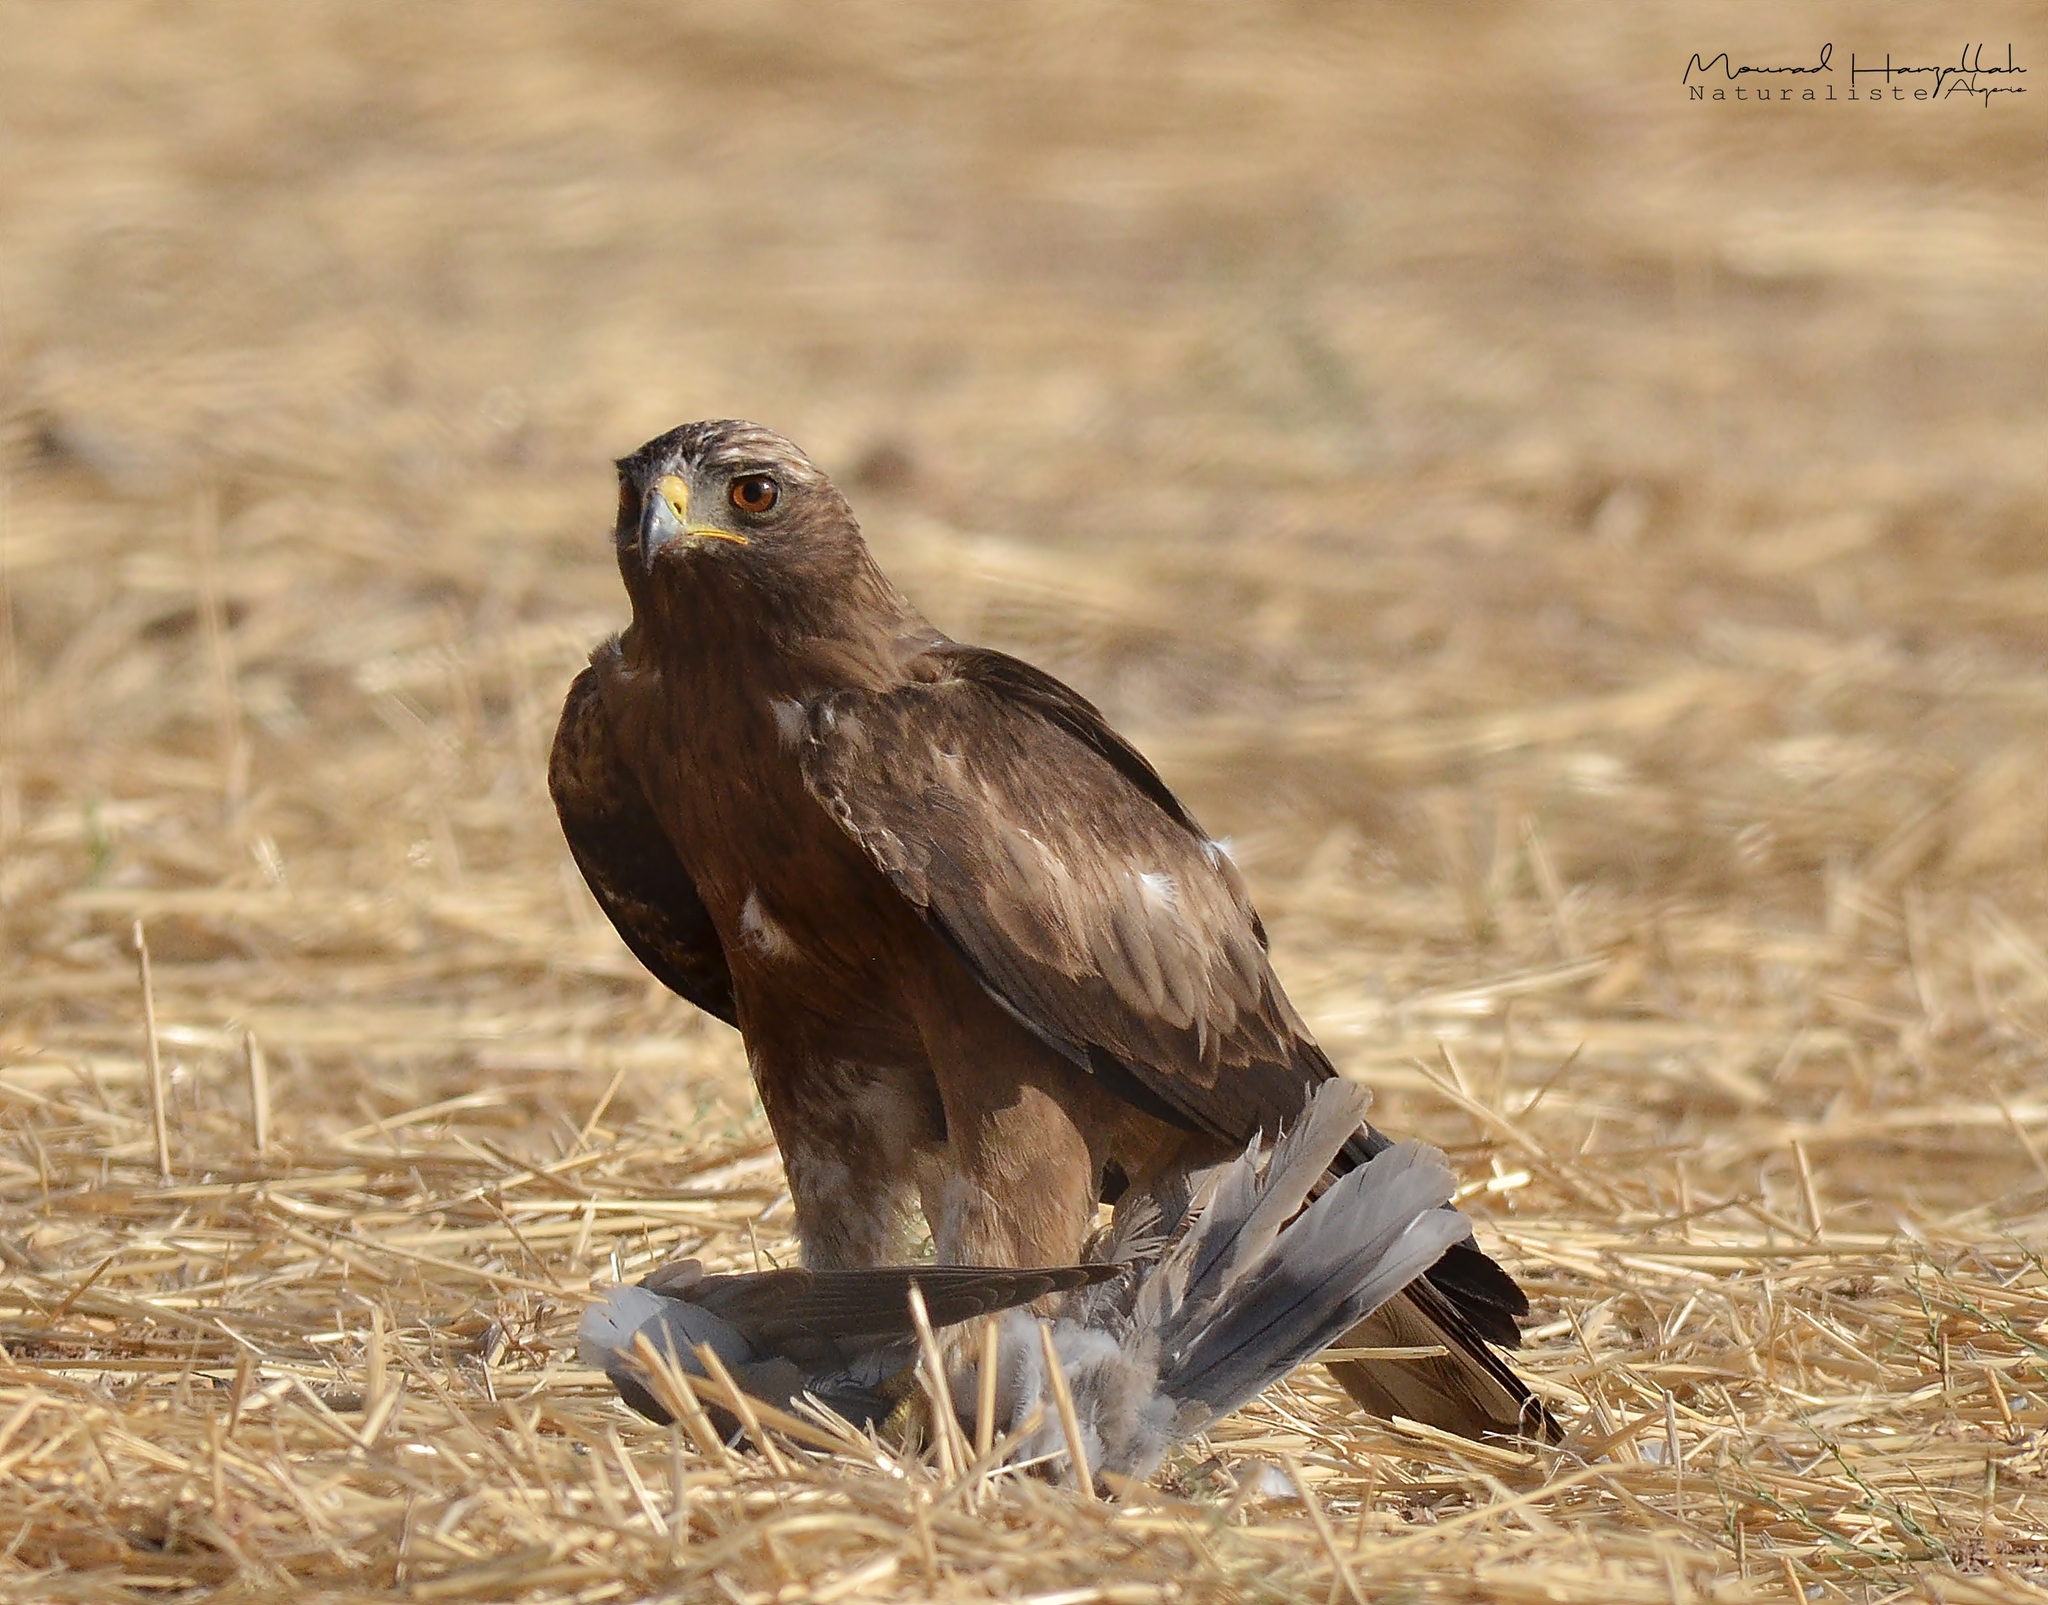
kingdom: Animalia
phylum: Chordata
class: Aves
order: Accipitriformes
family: Accipitridae
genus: Hieraaetus
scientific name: Hieraaetus pennatus
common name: Booted eagle
